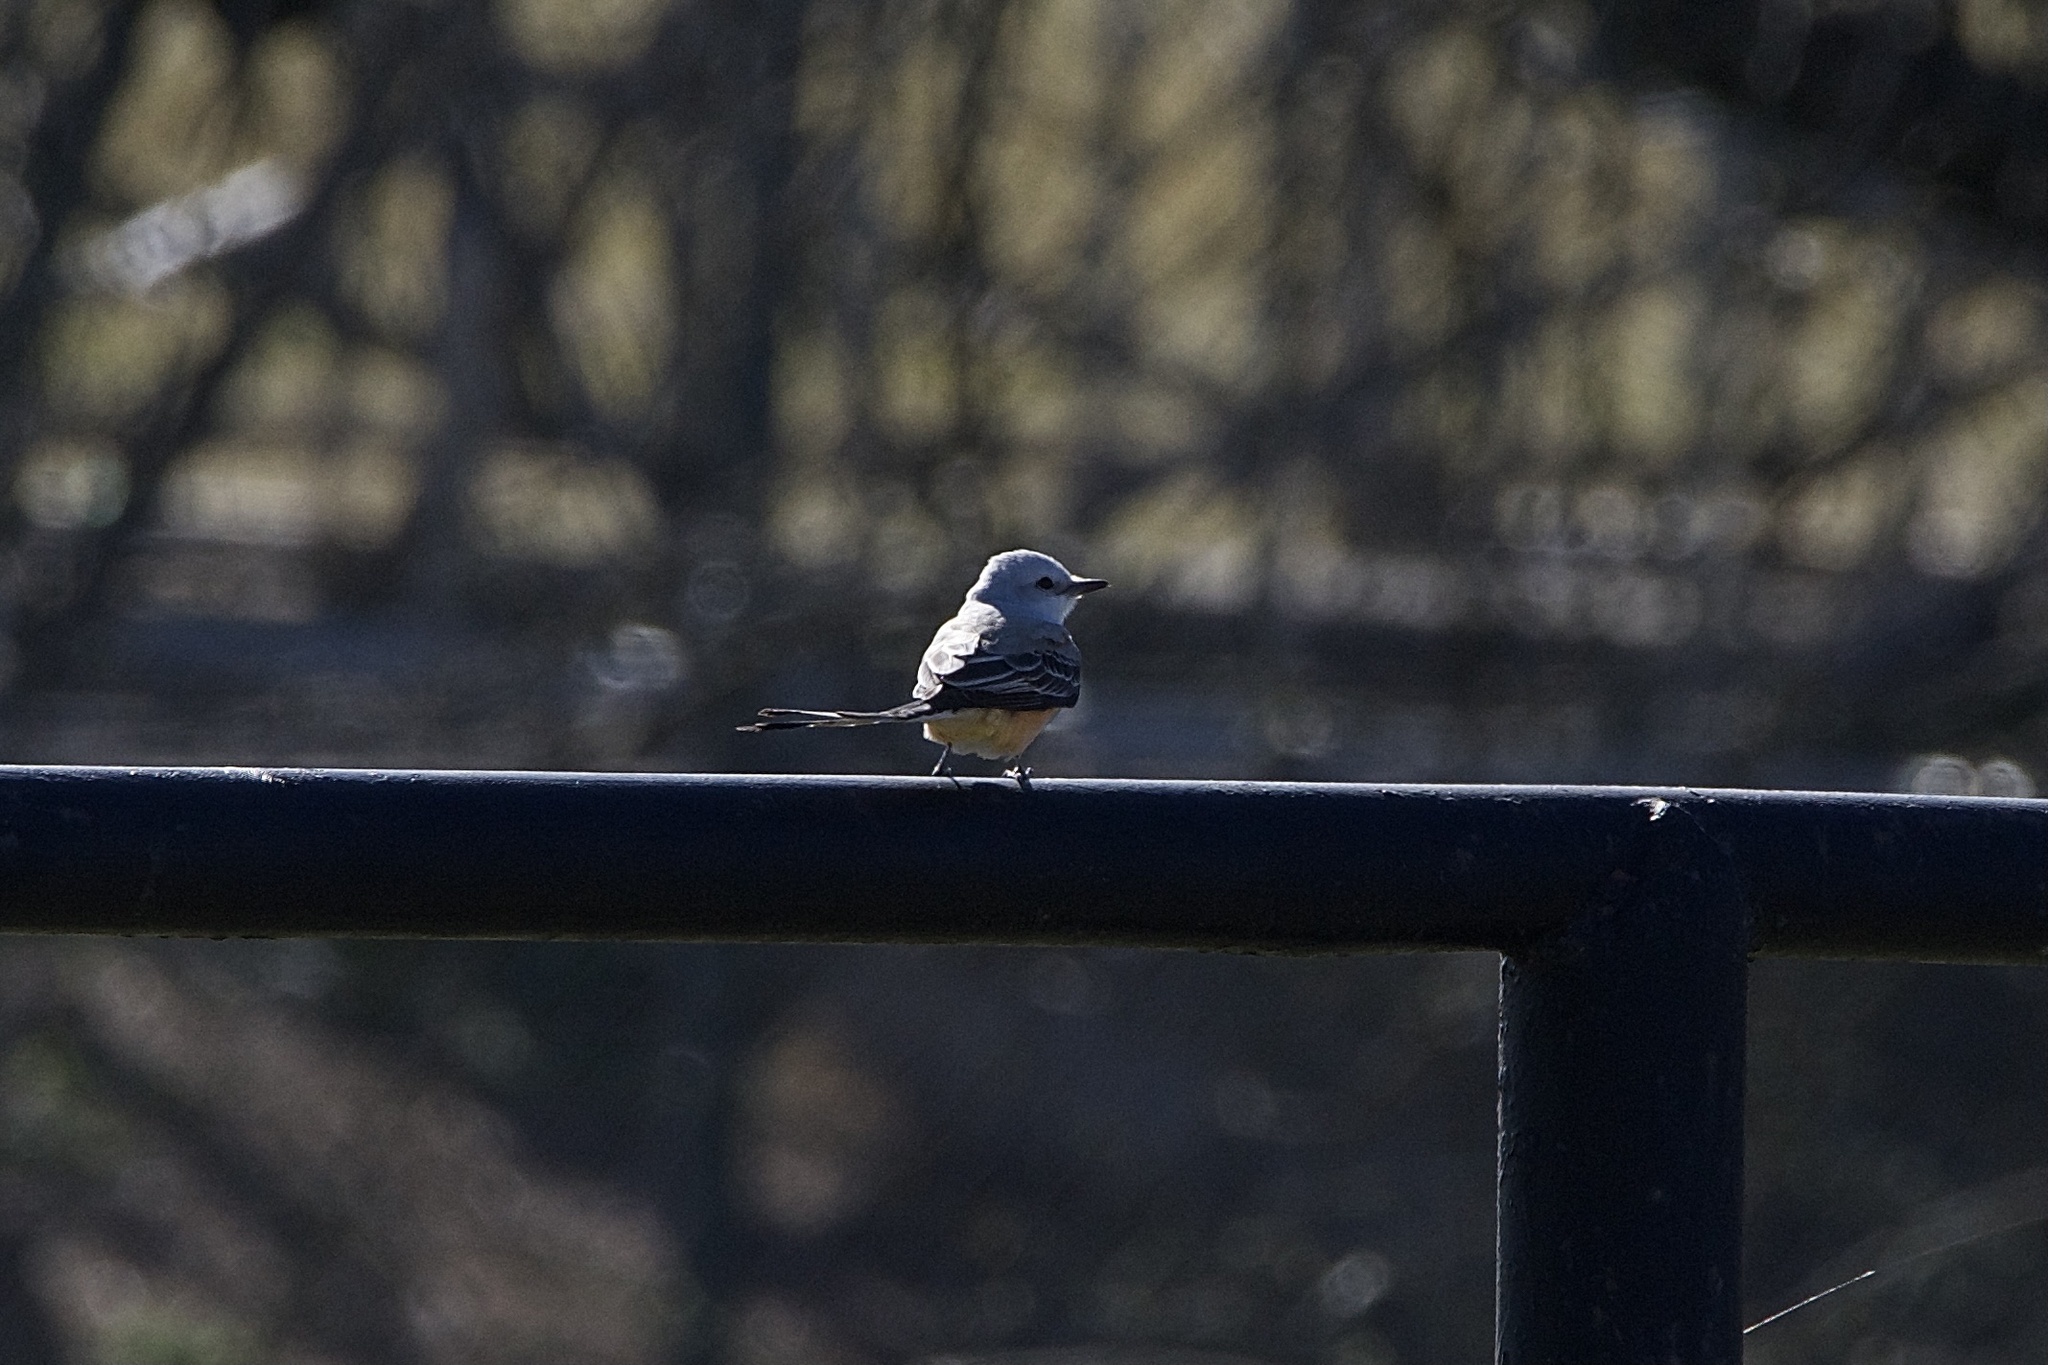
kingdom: Animalia
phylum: Chordata
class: Aves
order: Passeriformes
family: Tyrannidae
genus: Tyrannus
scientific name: Tyrannus forficatus
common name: Scissor-tailed flycatcher
